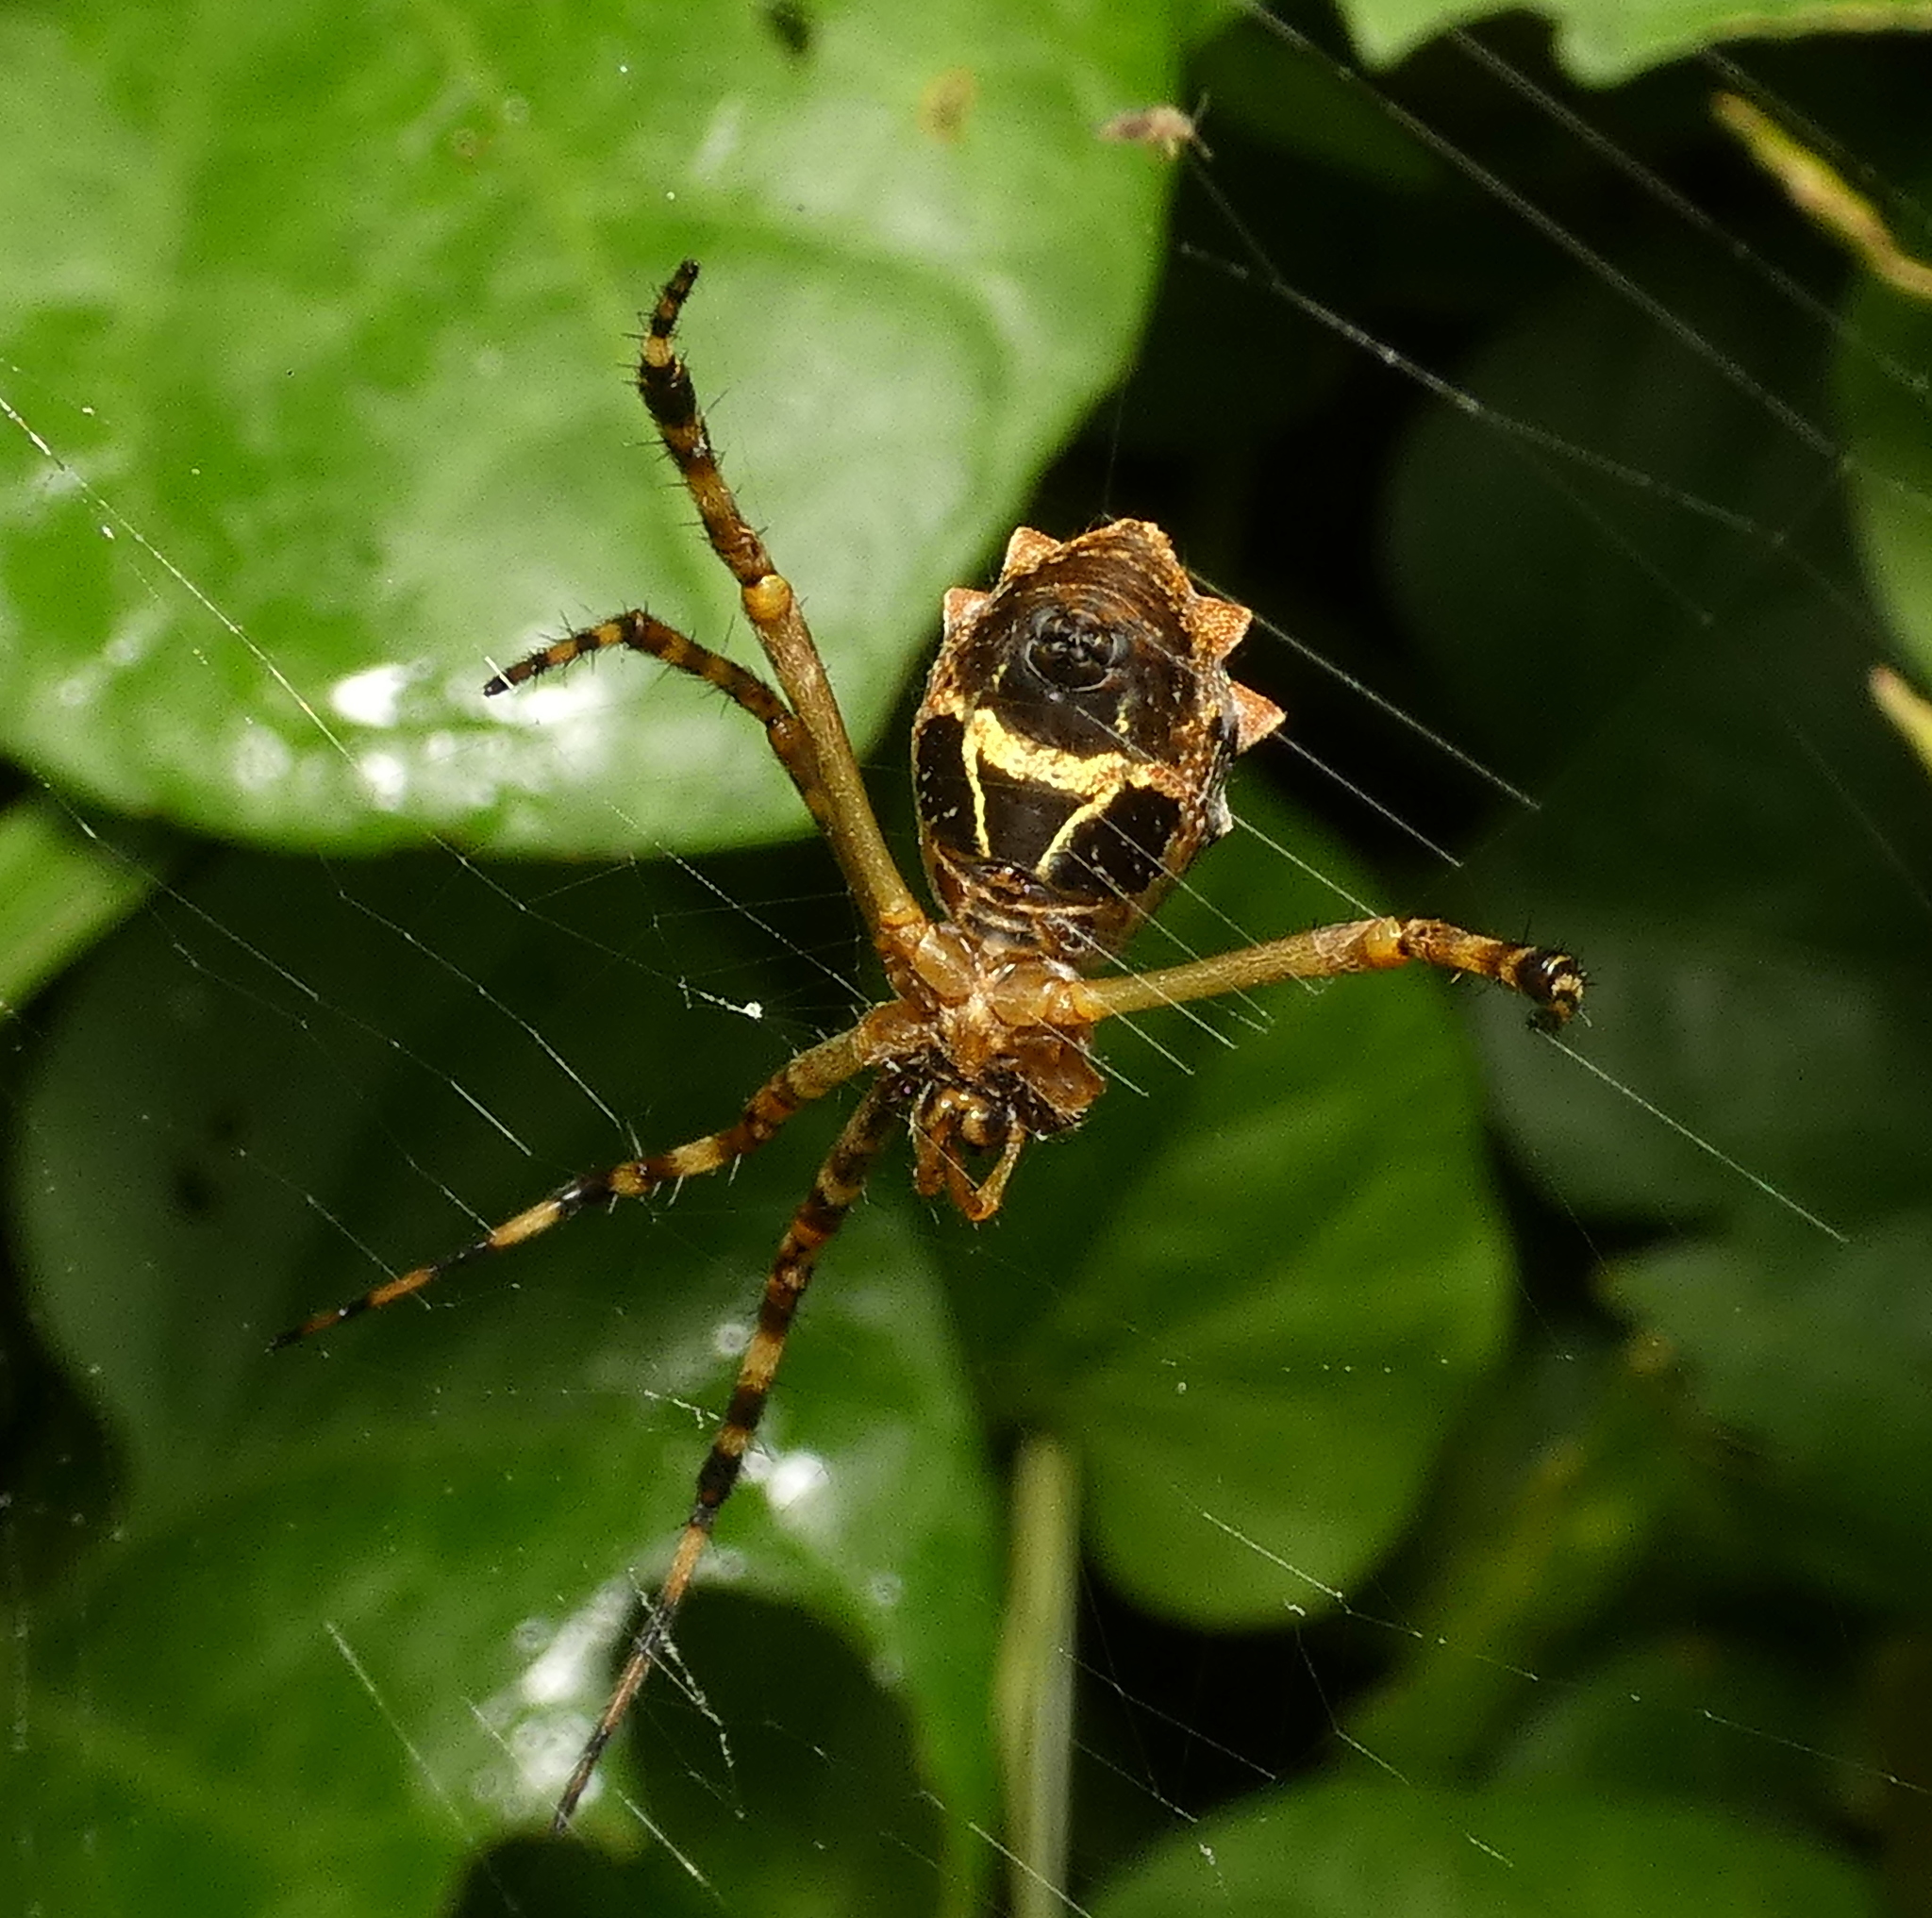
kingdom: Animalia
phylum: Arthropoda
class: Arachnida
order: Araneae
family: Araneidae
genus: Argiope
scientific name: Argiope argentata
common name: Orb weavers
